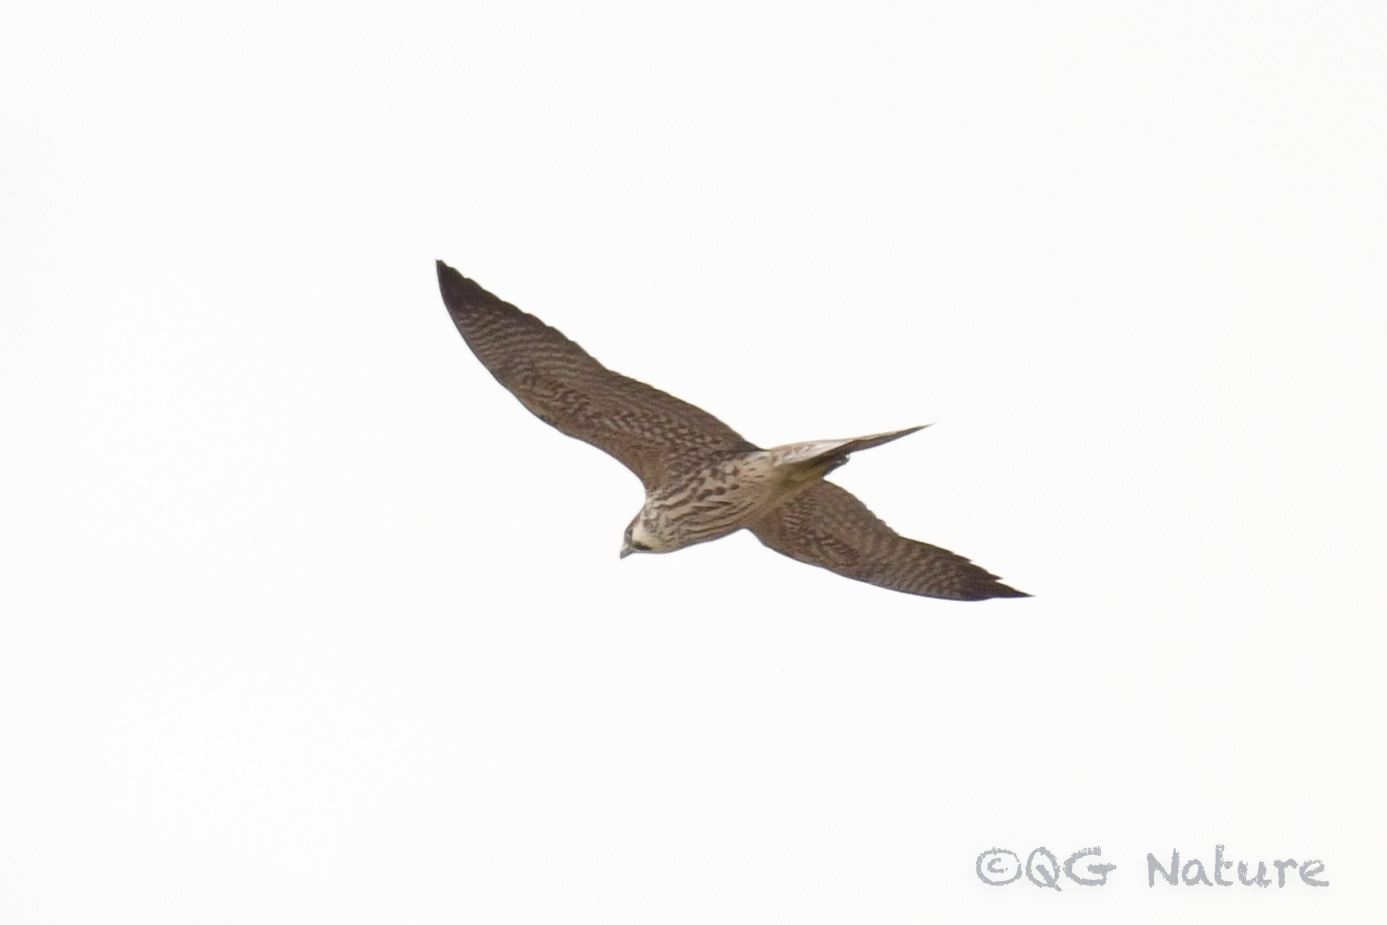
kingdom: Animalia
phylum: Chordata
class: Aves
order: Falconiformes
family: Falconidae
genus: Falco
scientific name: Falco peregrinus
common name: Peregrine falcon
